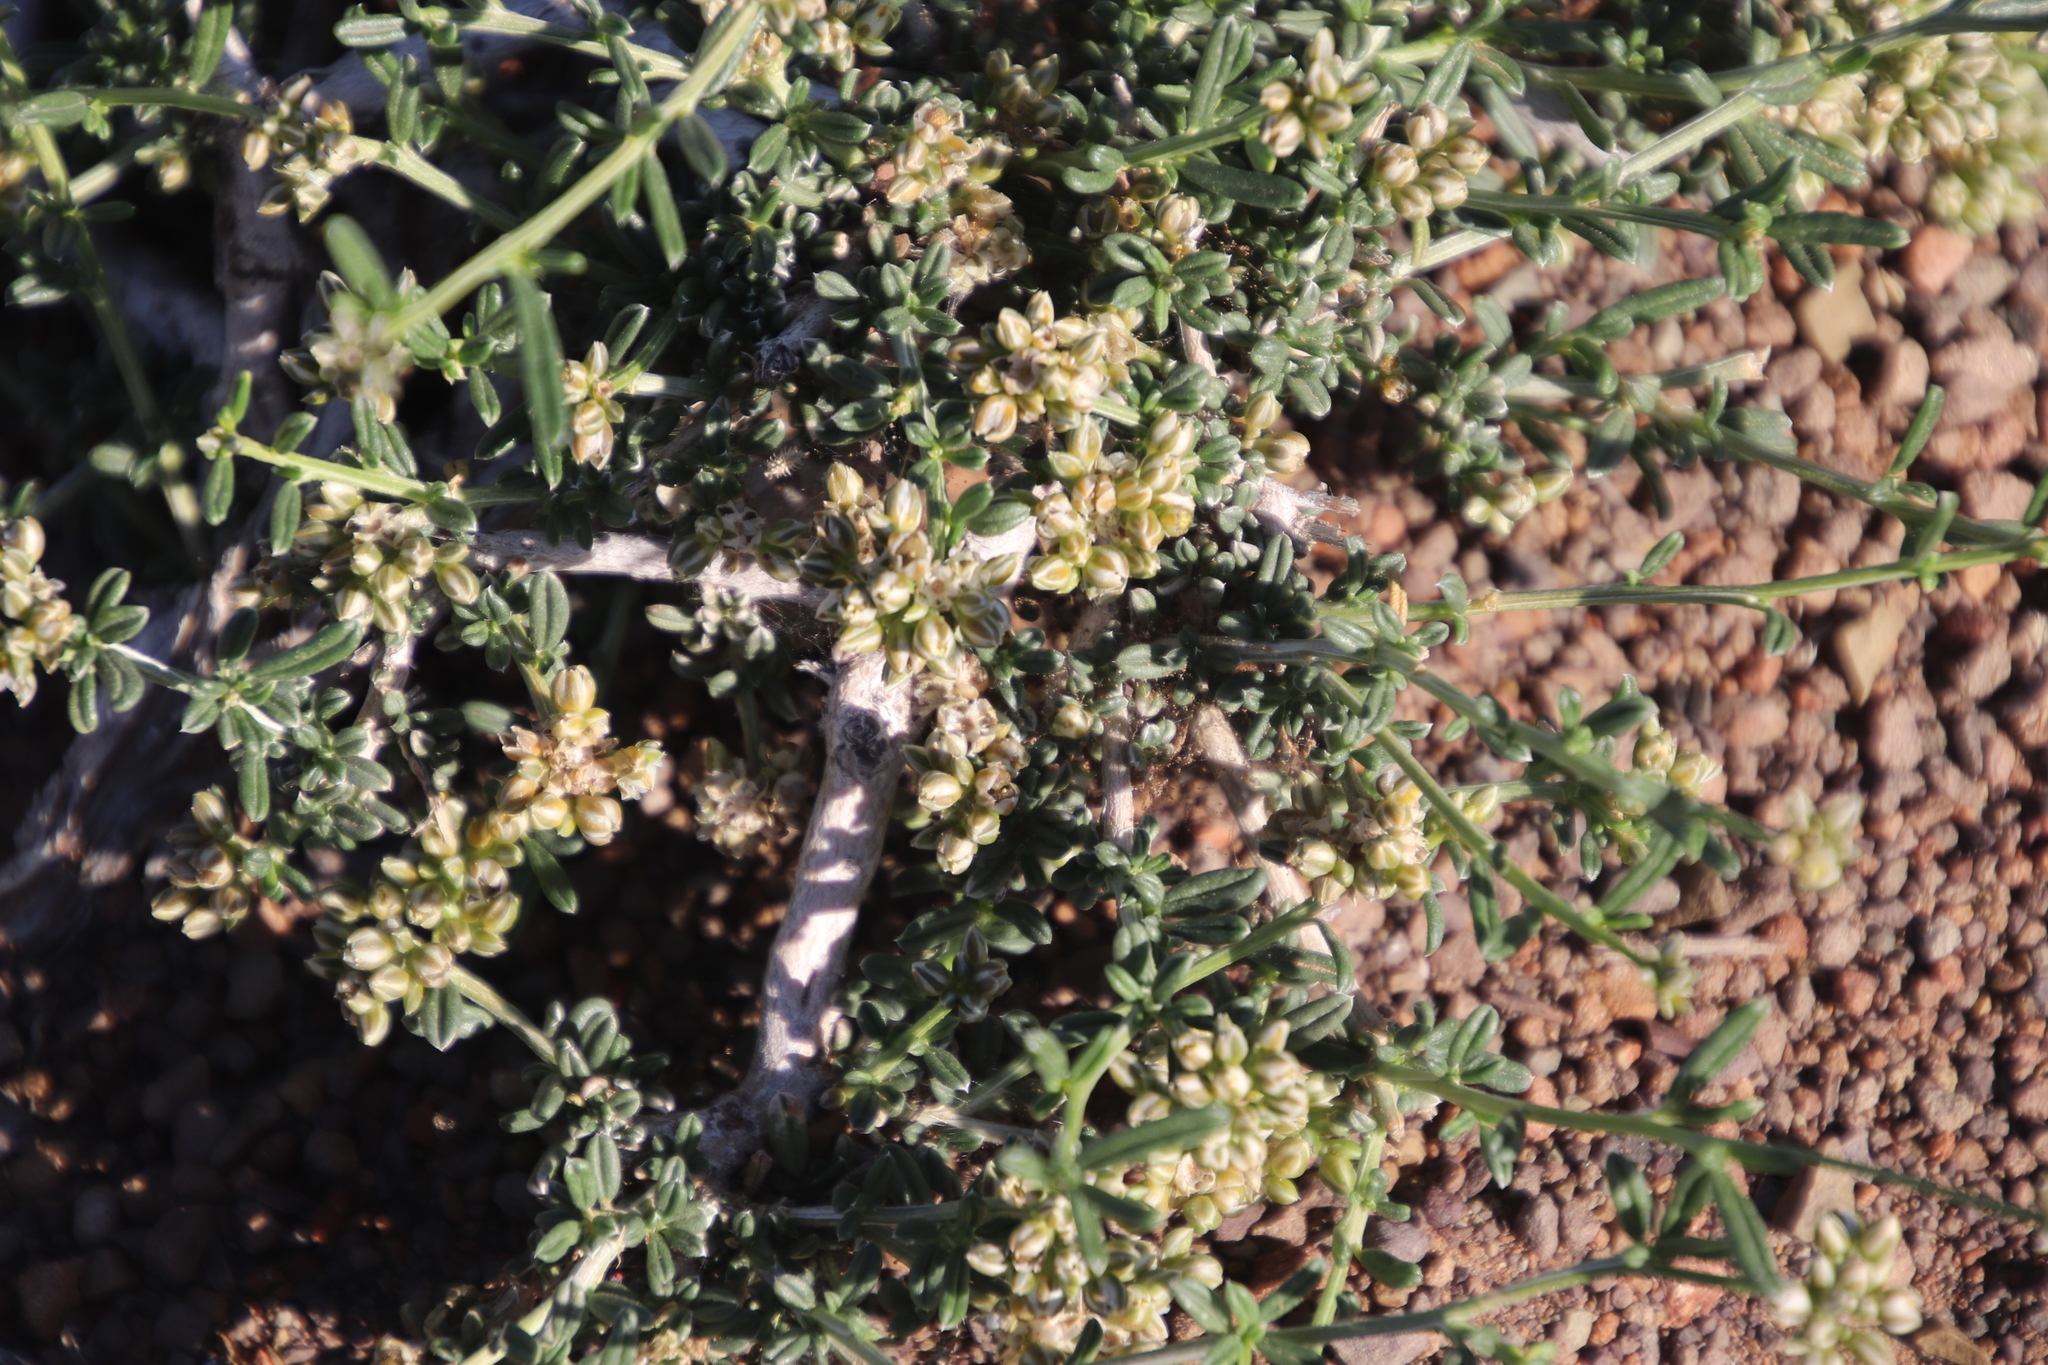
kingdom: Plantae
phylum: Tracheophyta
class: Magnoliopsida
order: Caryophyllales
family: Limeaceae
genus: Limeum
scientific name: Limeum aethiopicum
